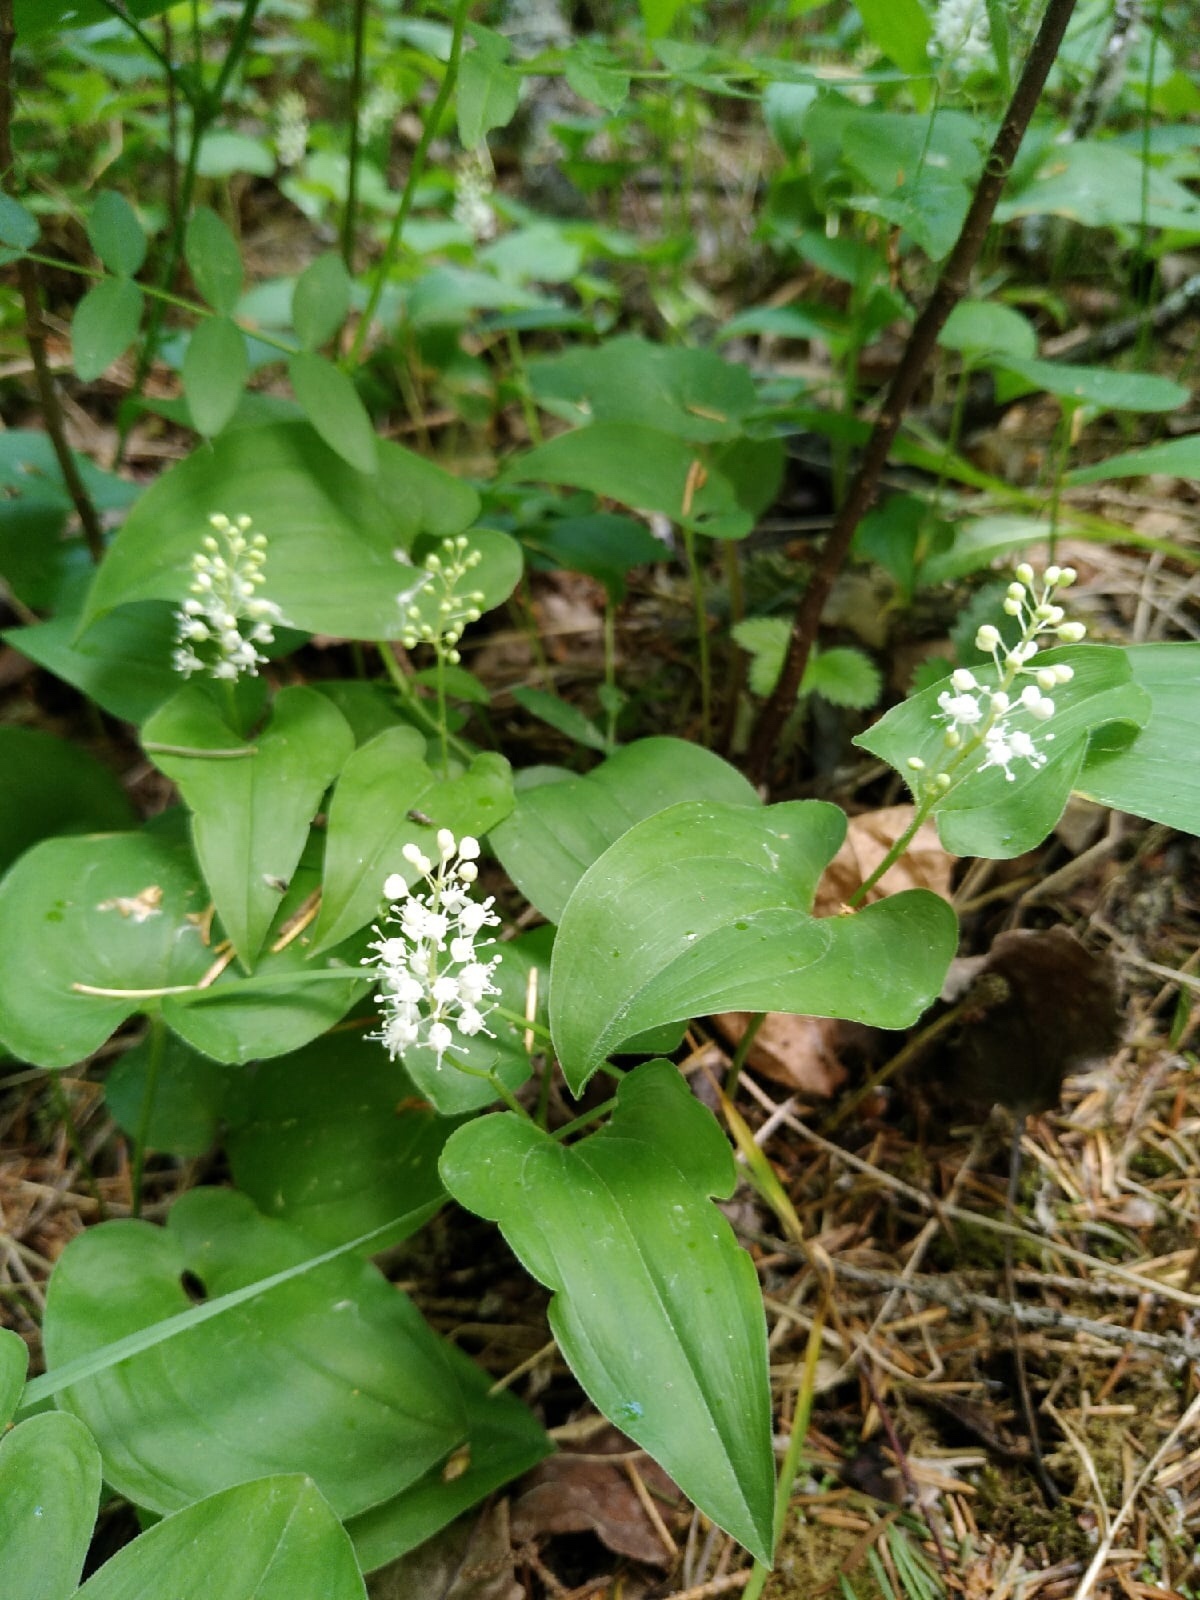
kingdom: Plantae
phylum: Tracheophyta
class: Liliopsida
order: Asparagales
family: Asparagaceae
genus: Maianthemum
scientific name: Maianthemum bifolium
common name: May lily
